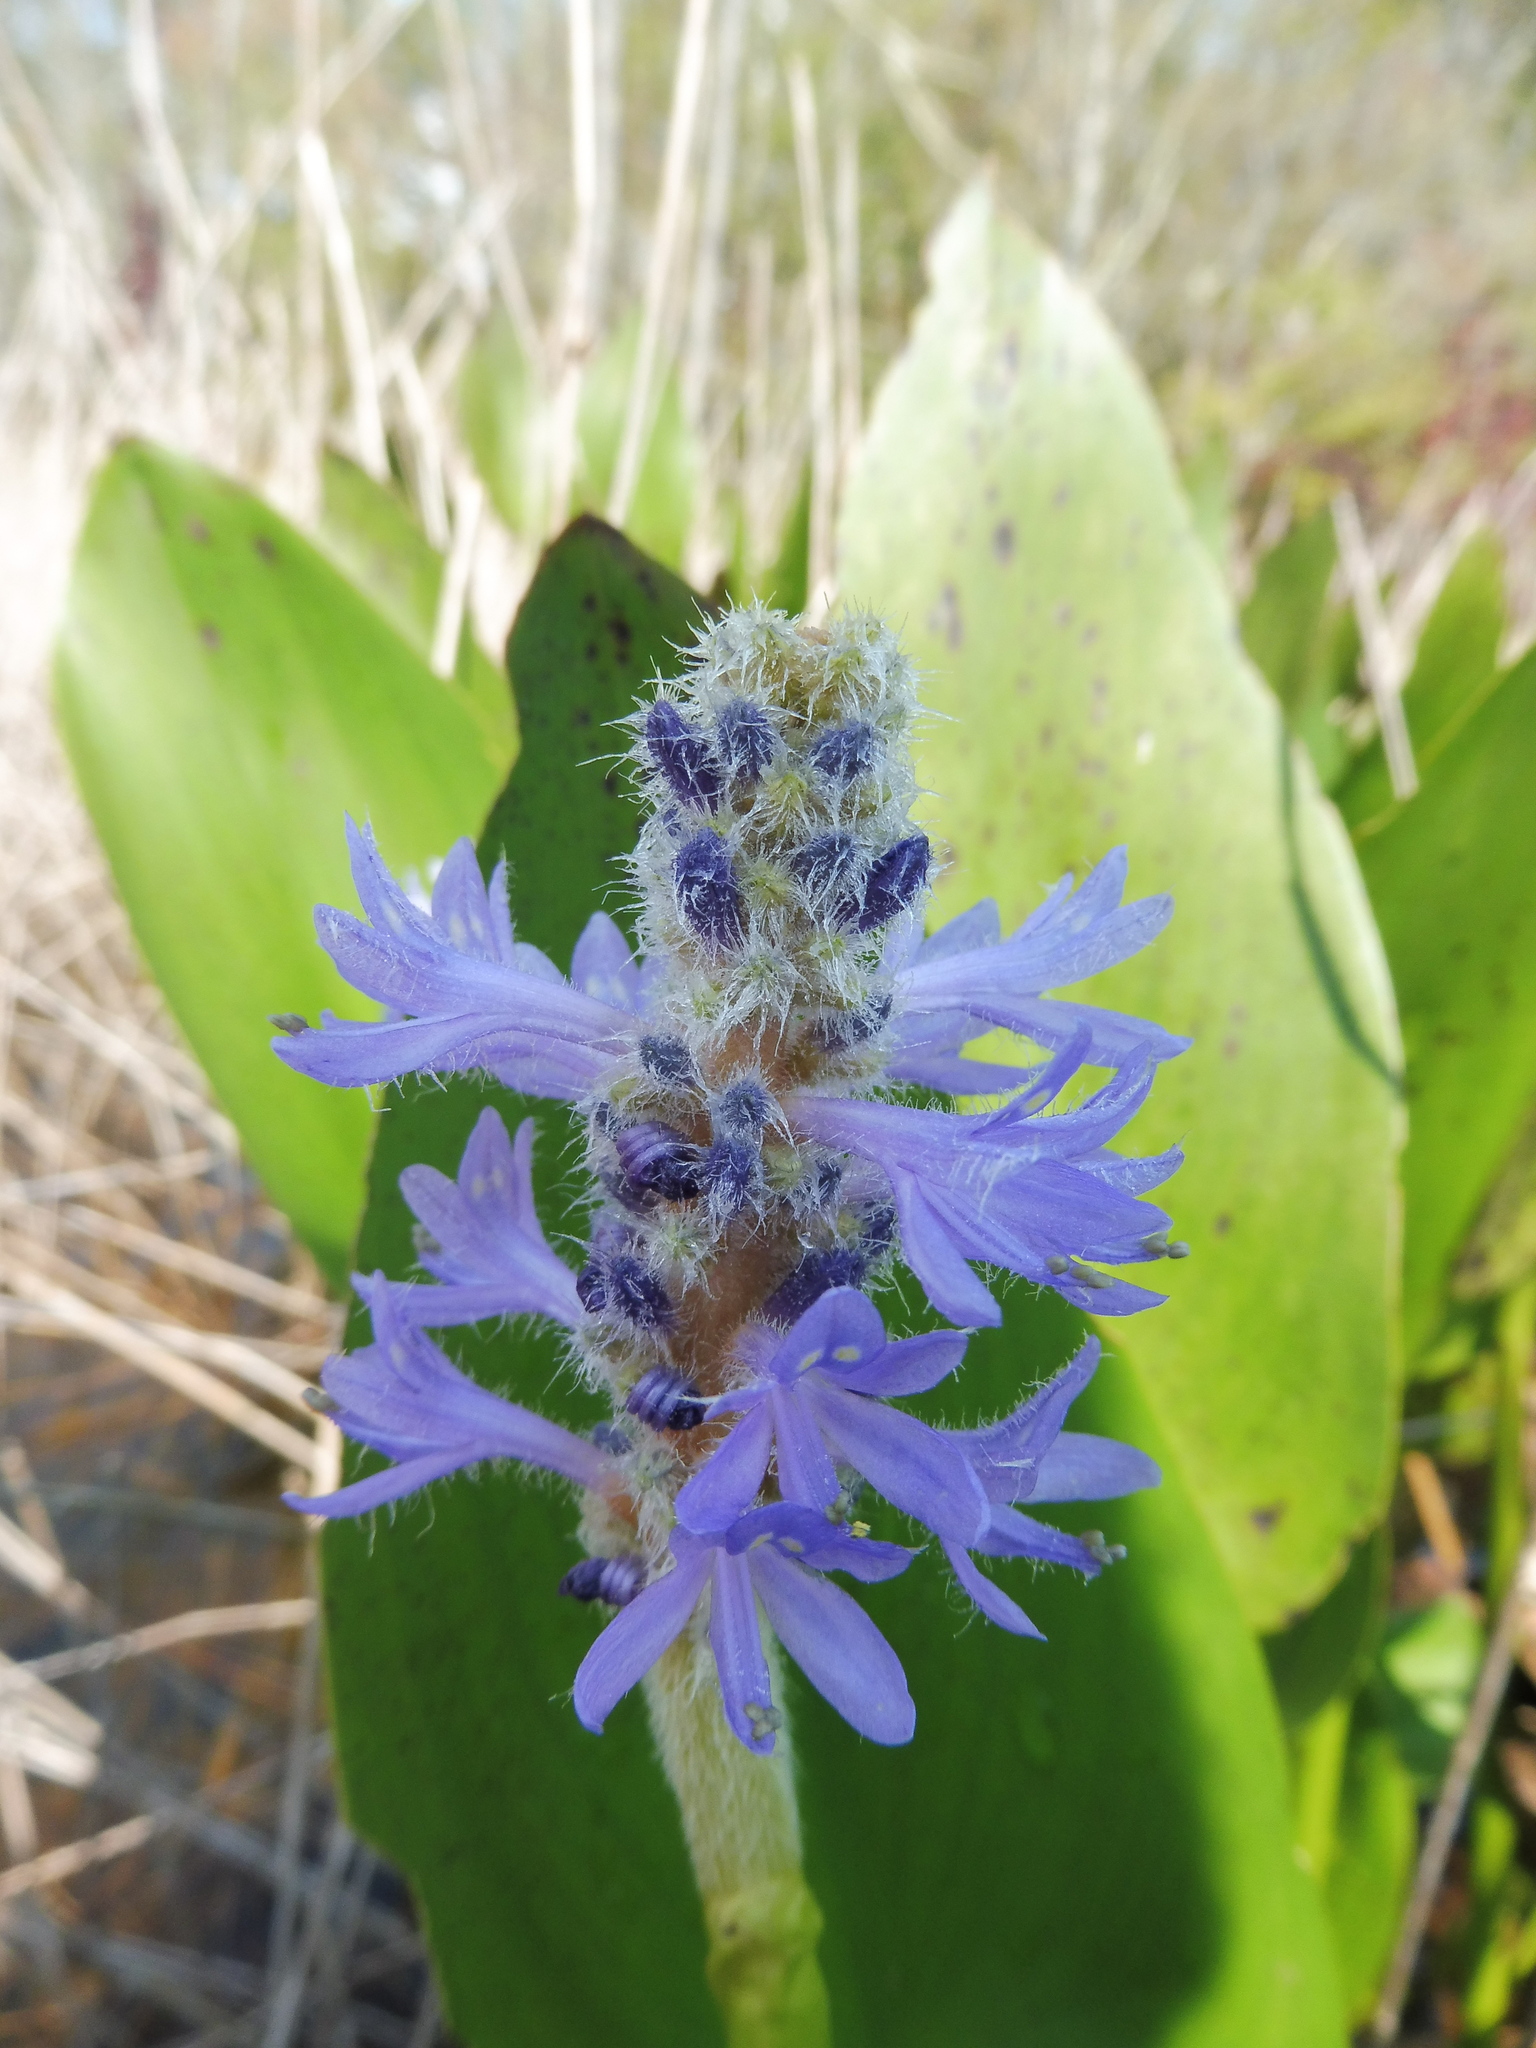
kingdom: Plantae
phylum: Tracheophyta
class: Liliopsida
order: Commelinales
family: Pontederiaceae
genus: Pontederia
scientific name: Pontederia cordata
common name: Pickerelweed
